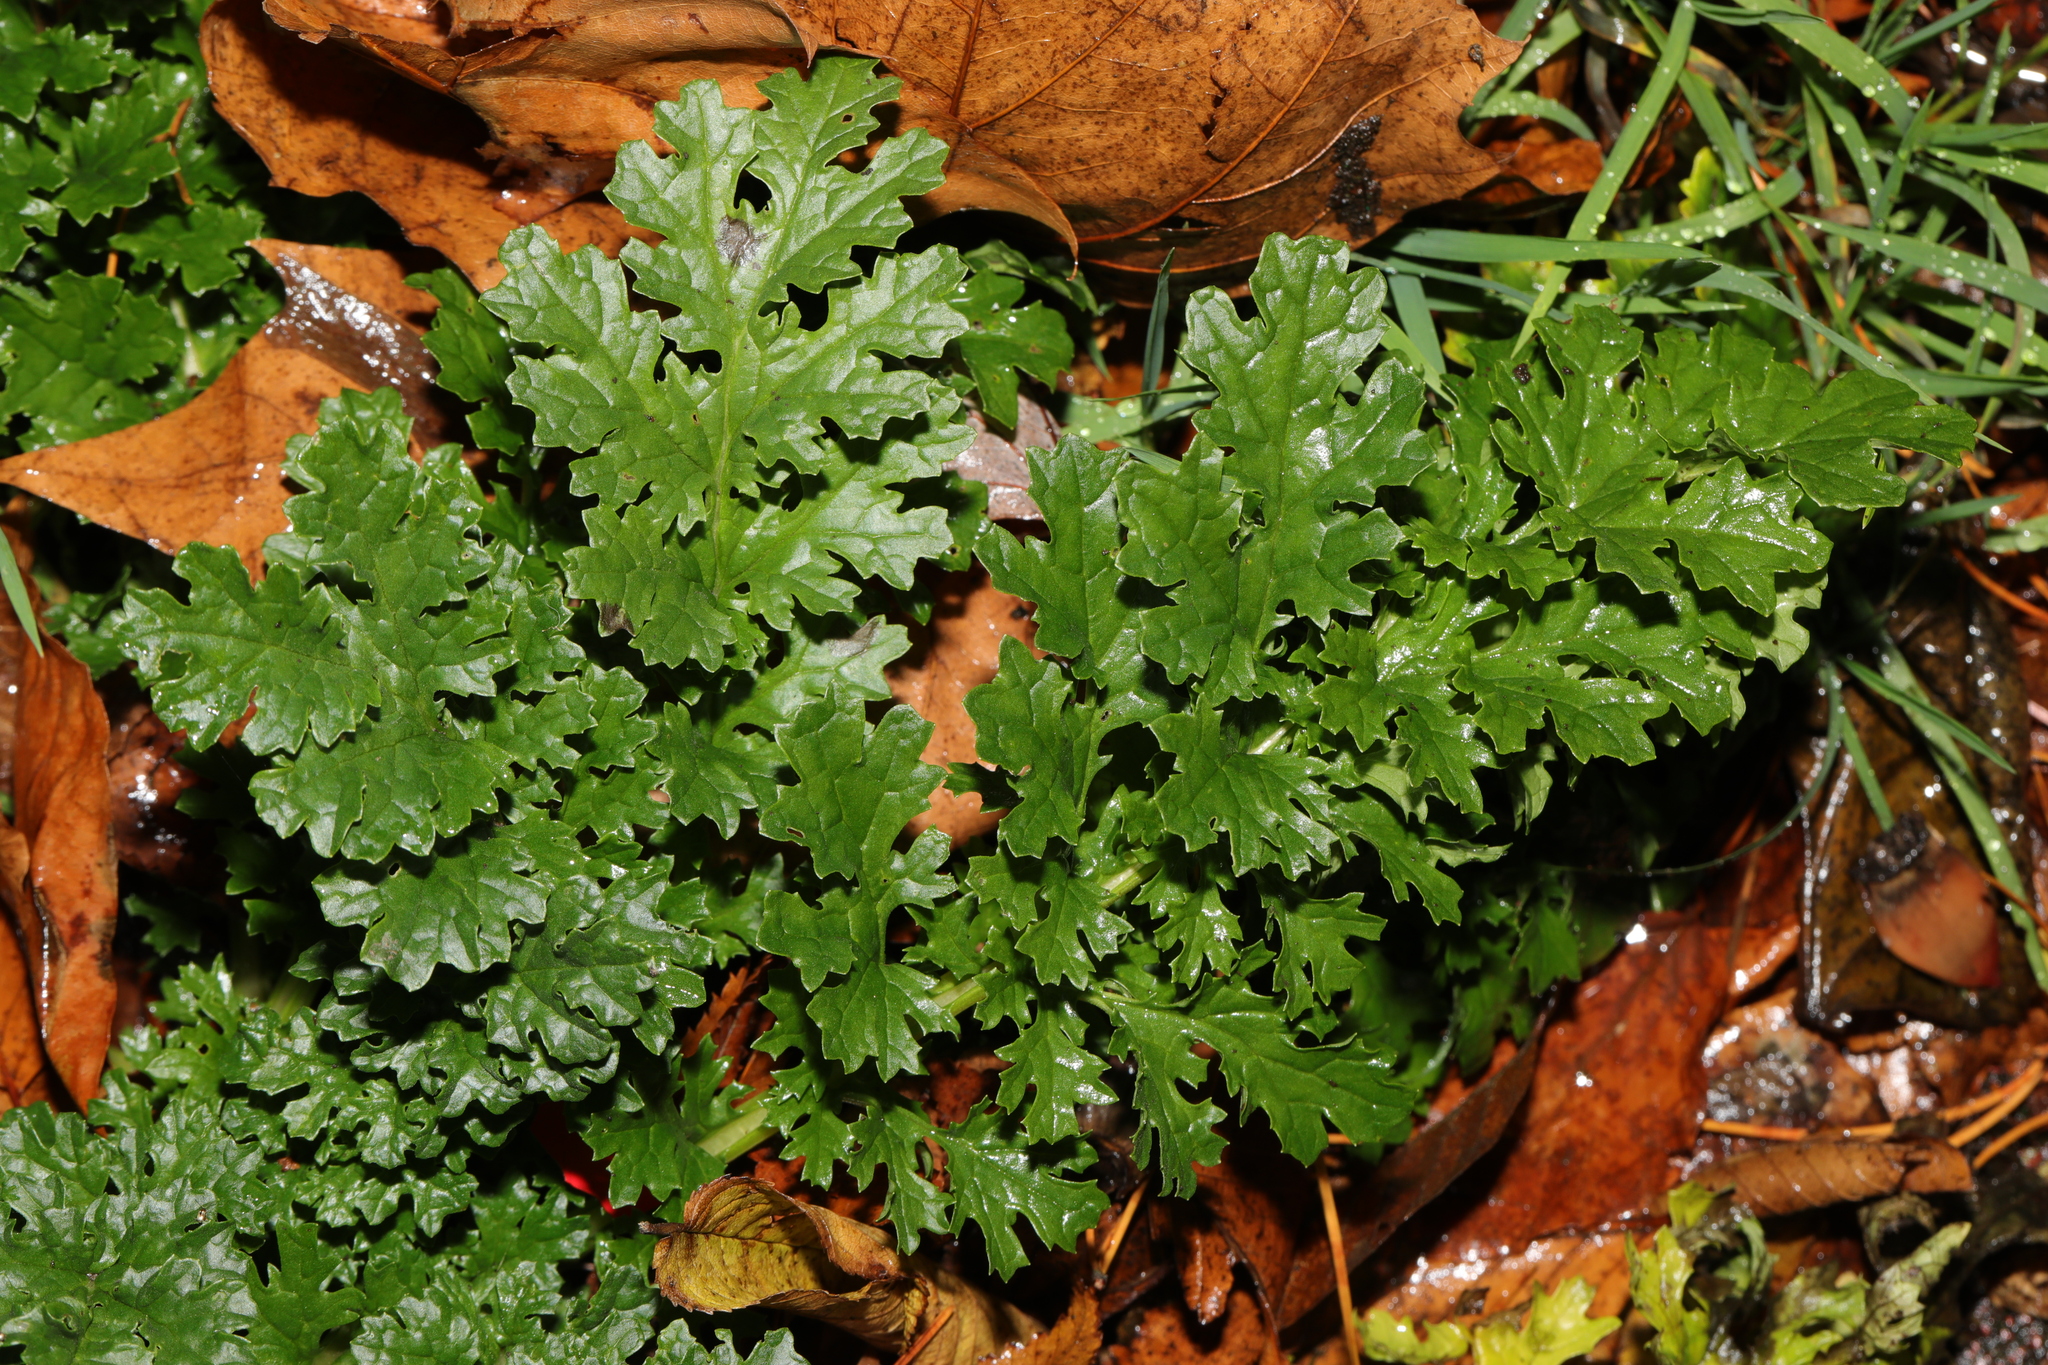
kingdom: Plantae
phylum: Tracheophyta
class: Magnoliopsida
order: Asterales
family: Asteraceae
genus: Jacobaea
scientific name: Jacobaea vulgaris
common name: Stinking willie
